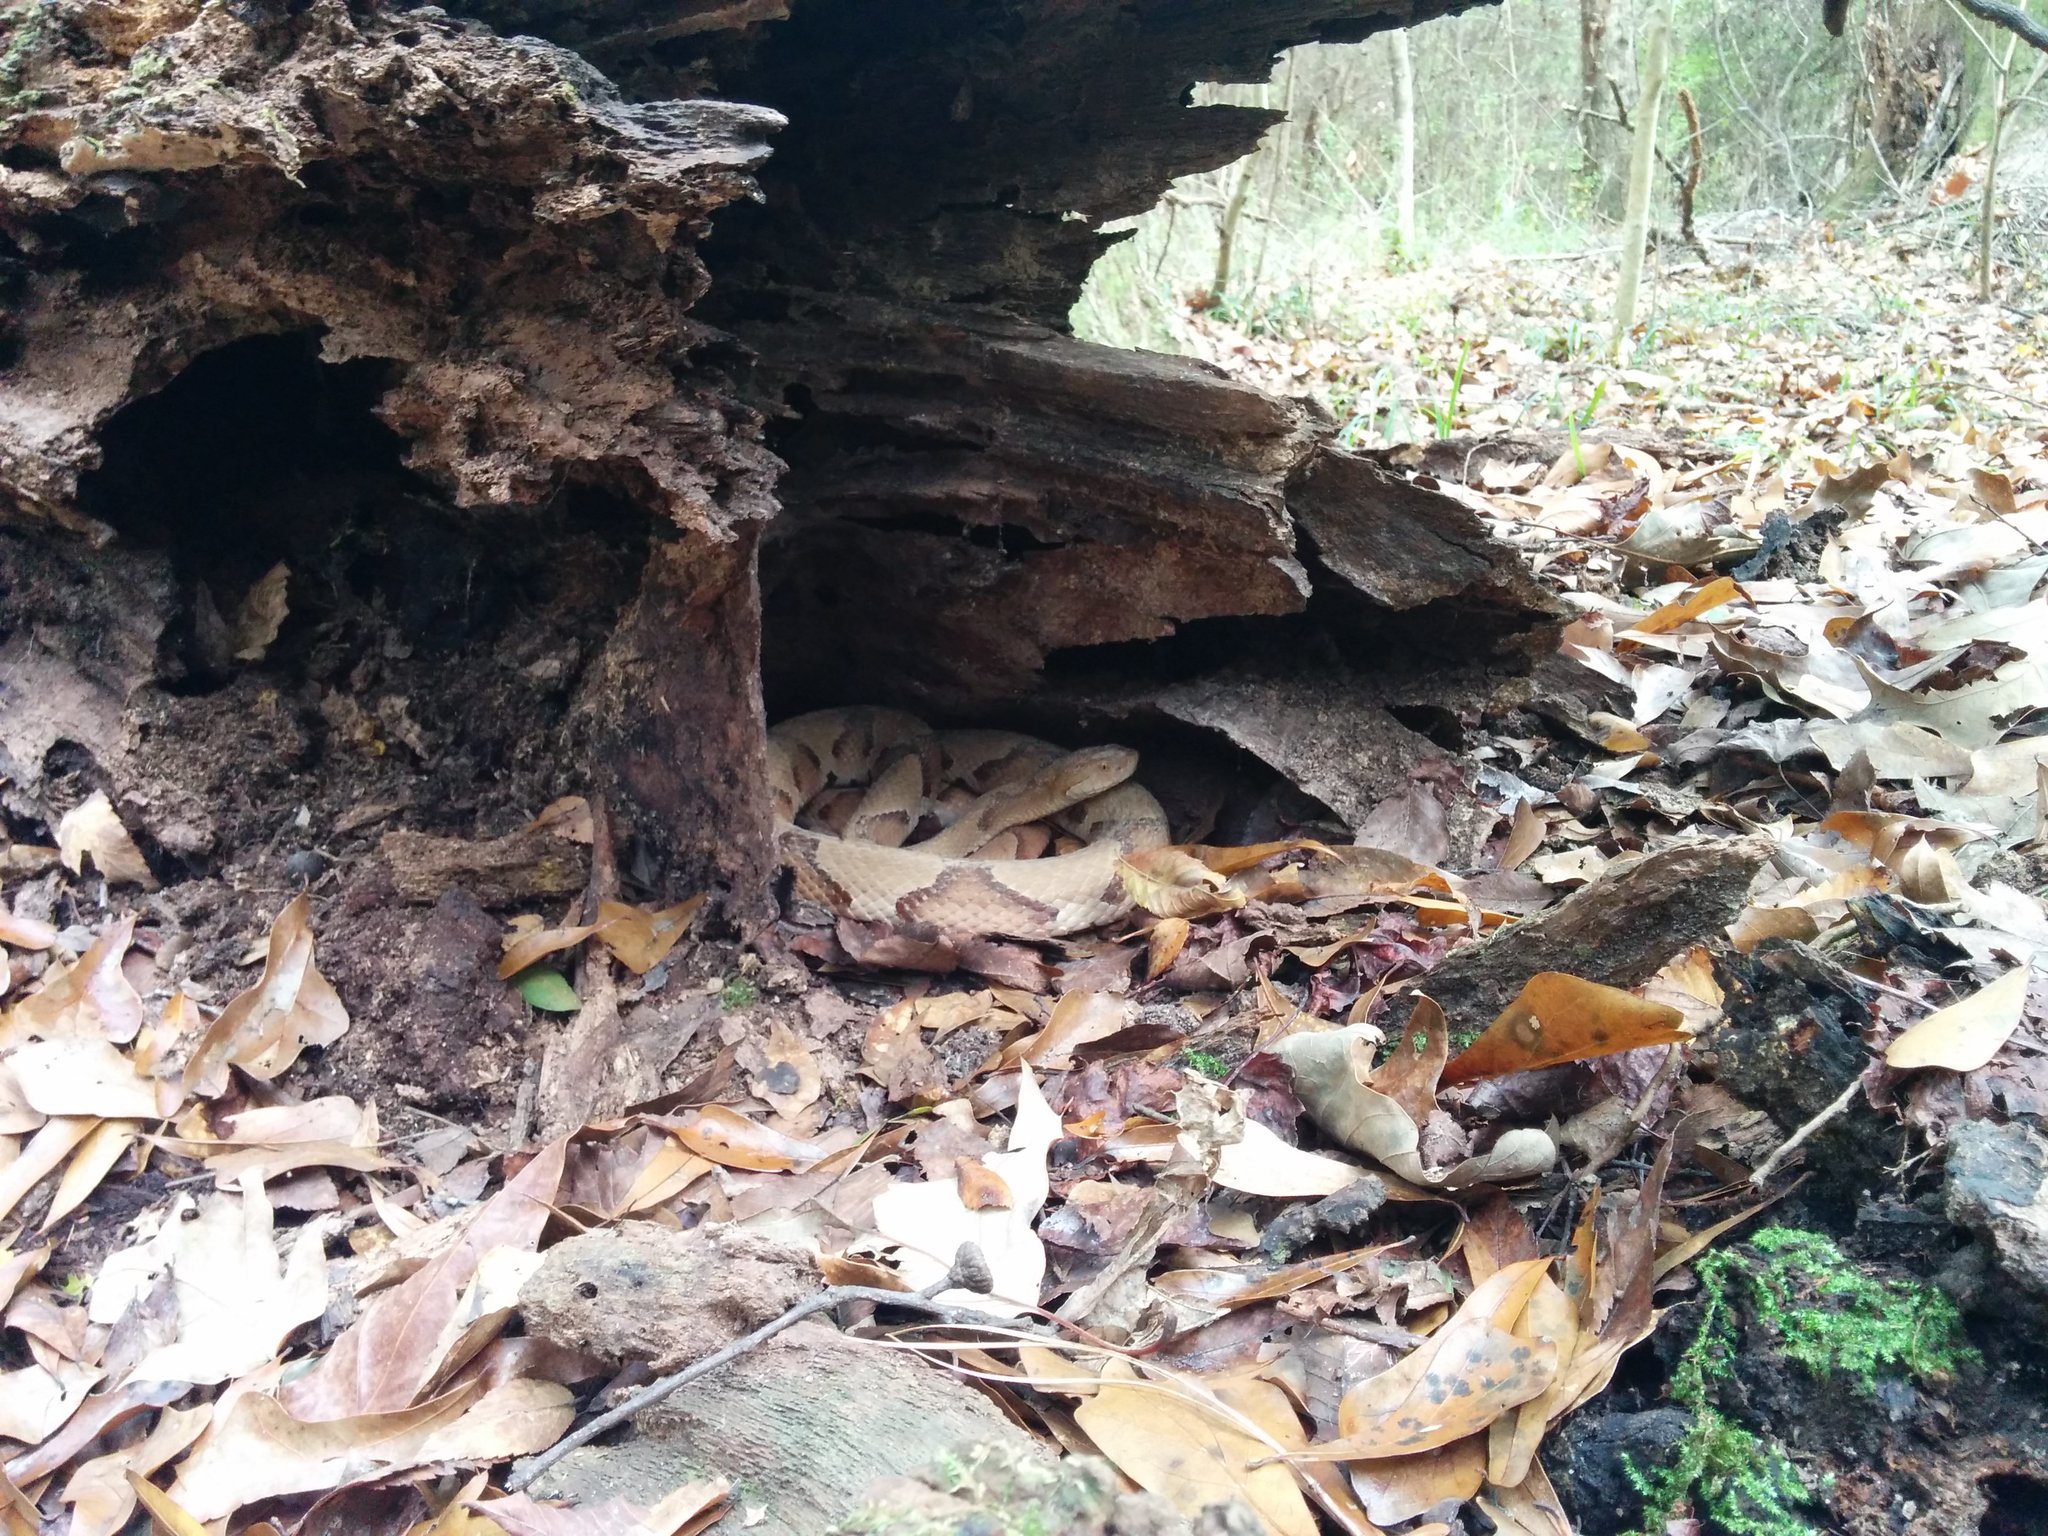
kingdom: Animalia
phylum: Chordata
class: Squamata
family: Viperidae
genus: Agkistrodon
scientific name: Agkistrodon contortrix
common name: Northern copperhead
